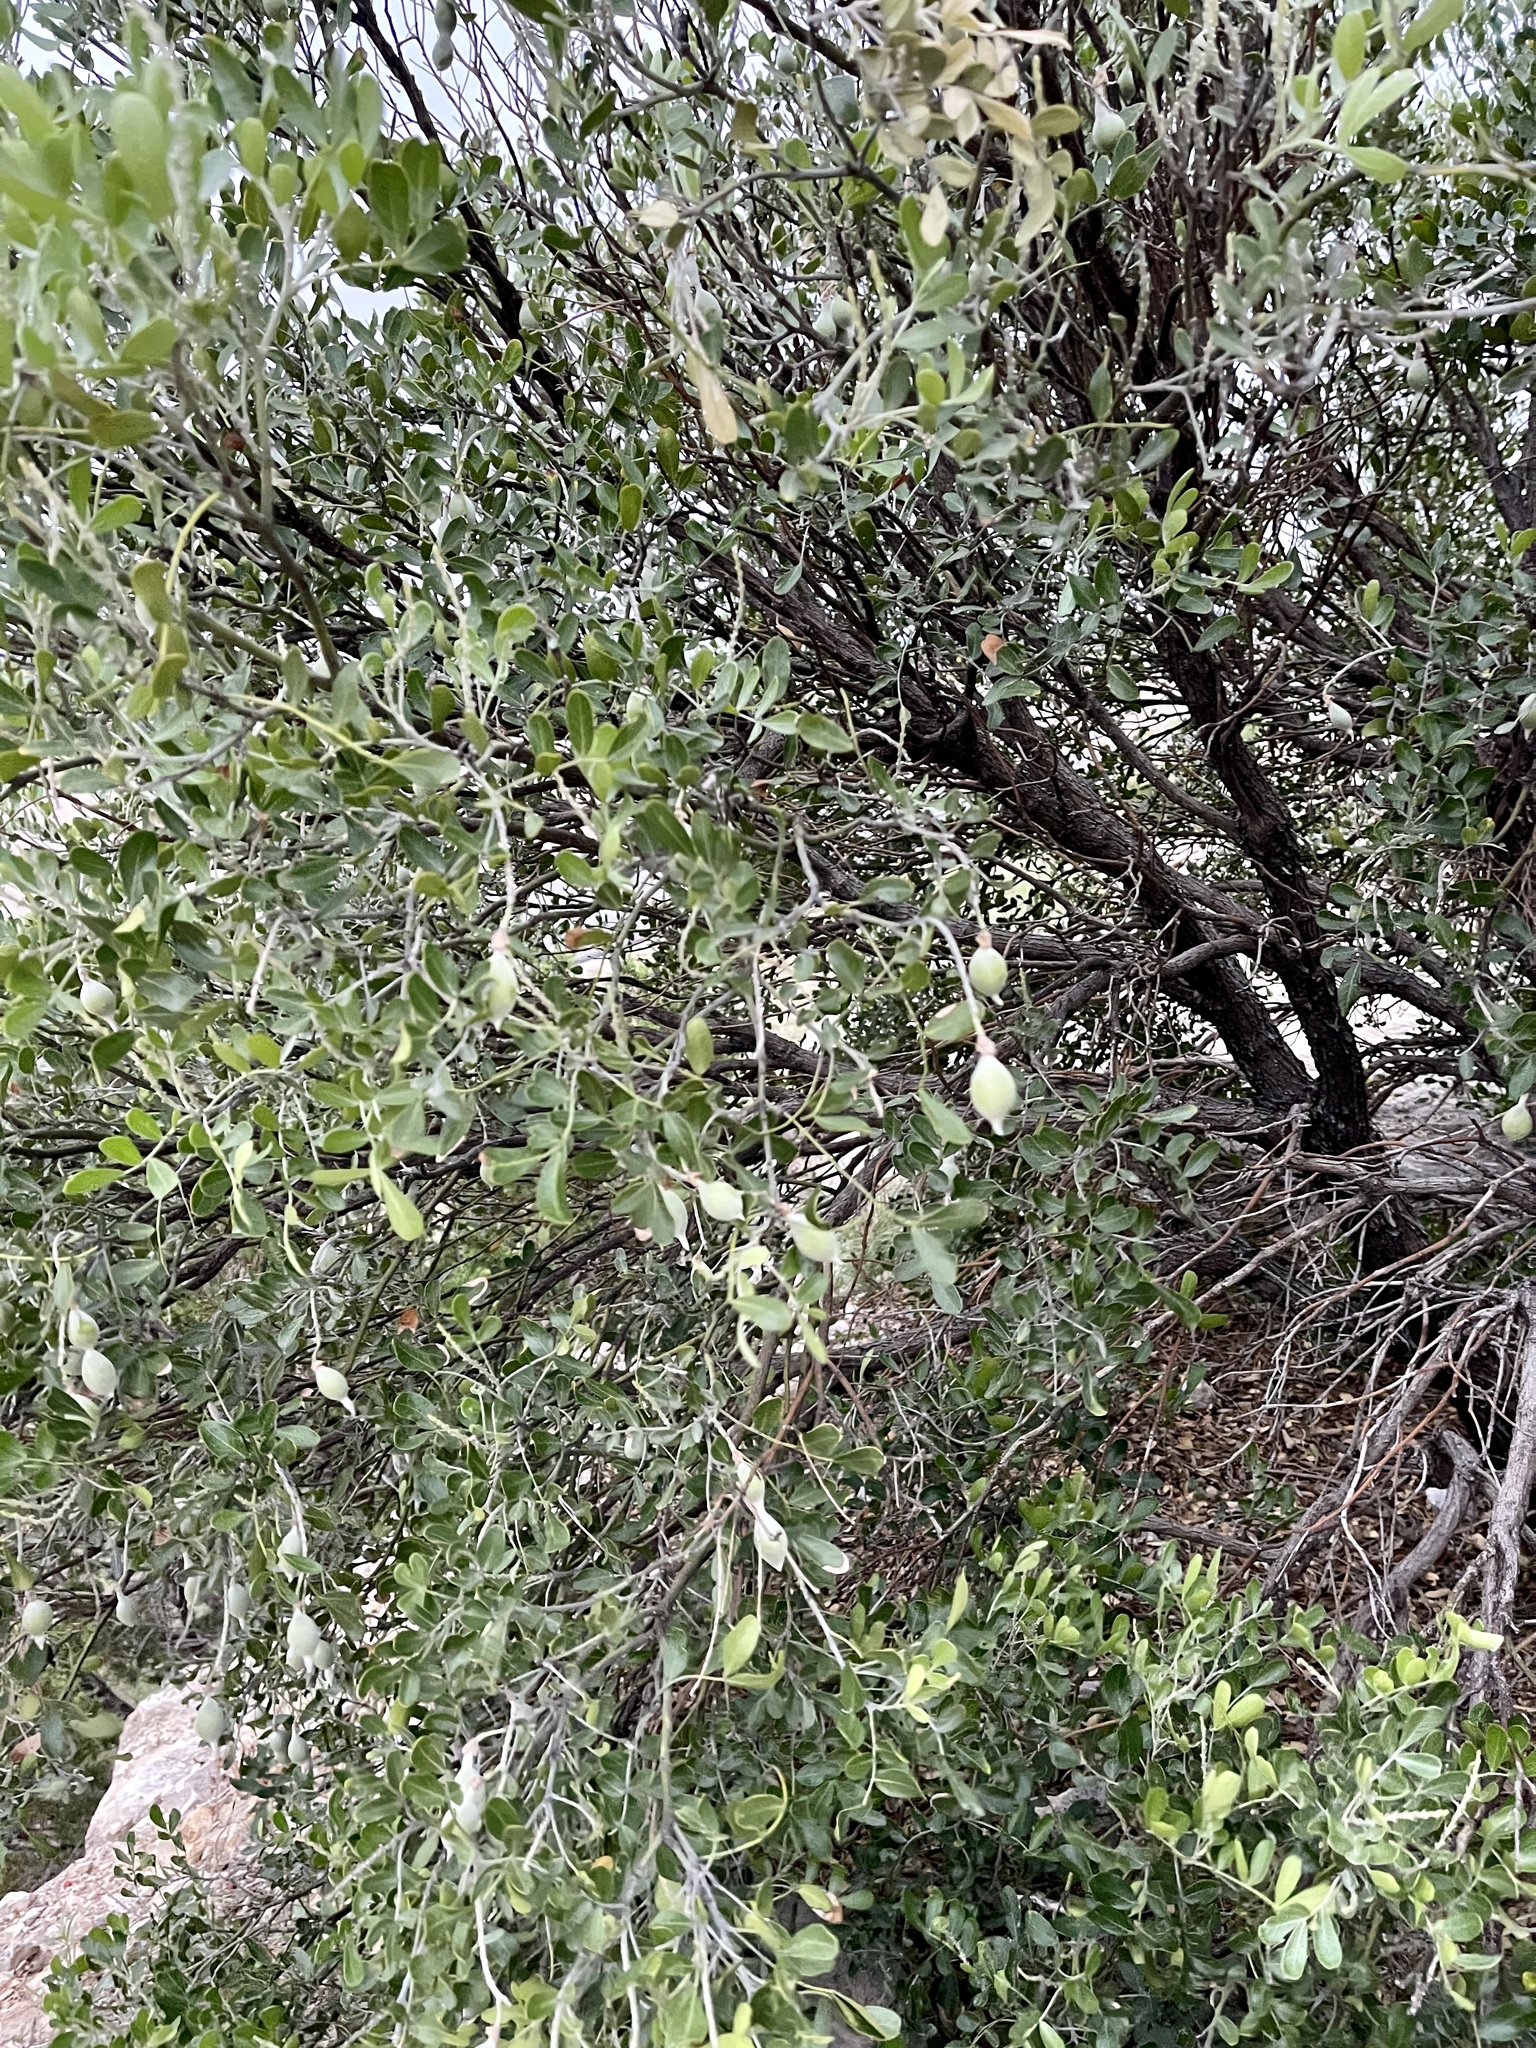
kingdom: Plantae
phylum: Tracheophyta
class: Magnoliopsida
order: Fabales
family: Fabaceae
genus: Dermatophyllum
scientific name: Dermatophyllum secundiflorum
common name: Texas-mountain-laurel
